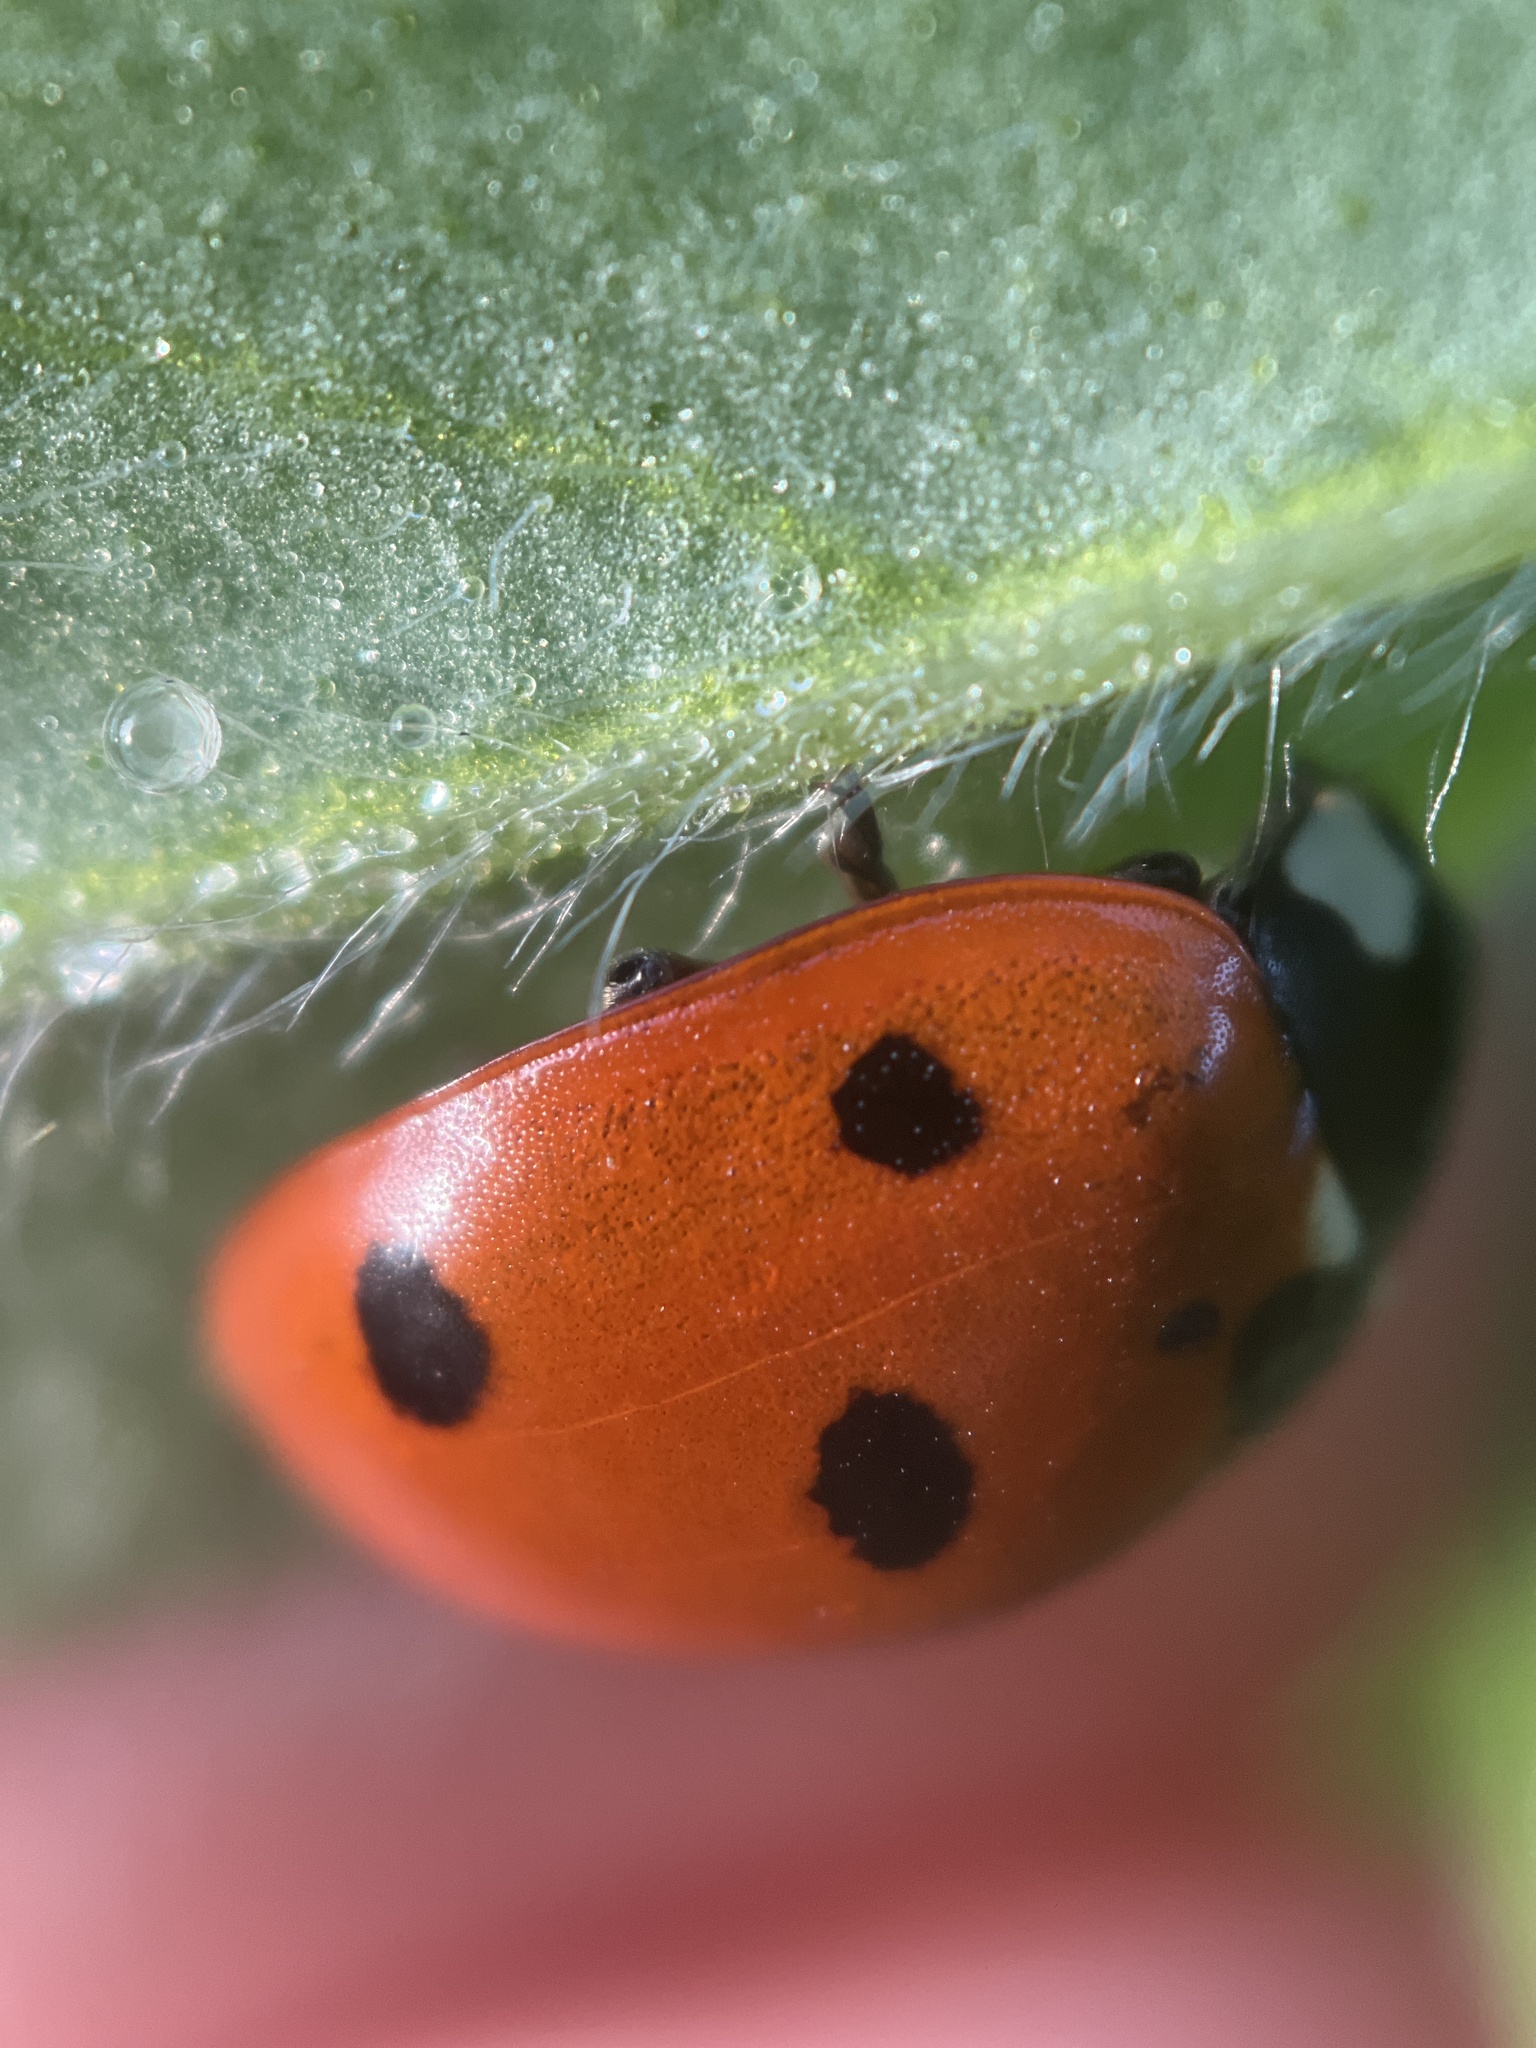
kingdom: Animalia
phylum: Arthropoda
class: Insecta
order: Coleoptera
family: Coccinellidae
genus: Coccinella
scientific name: Coccinella septempunctata
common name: Sevenspotted lady beetle
